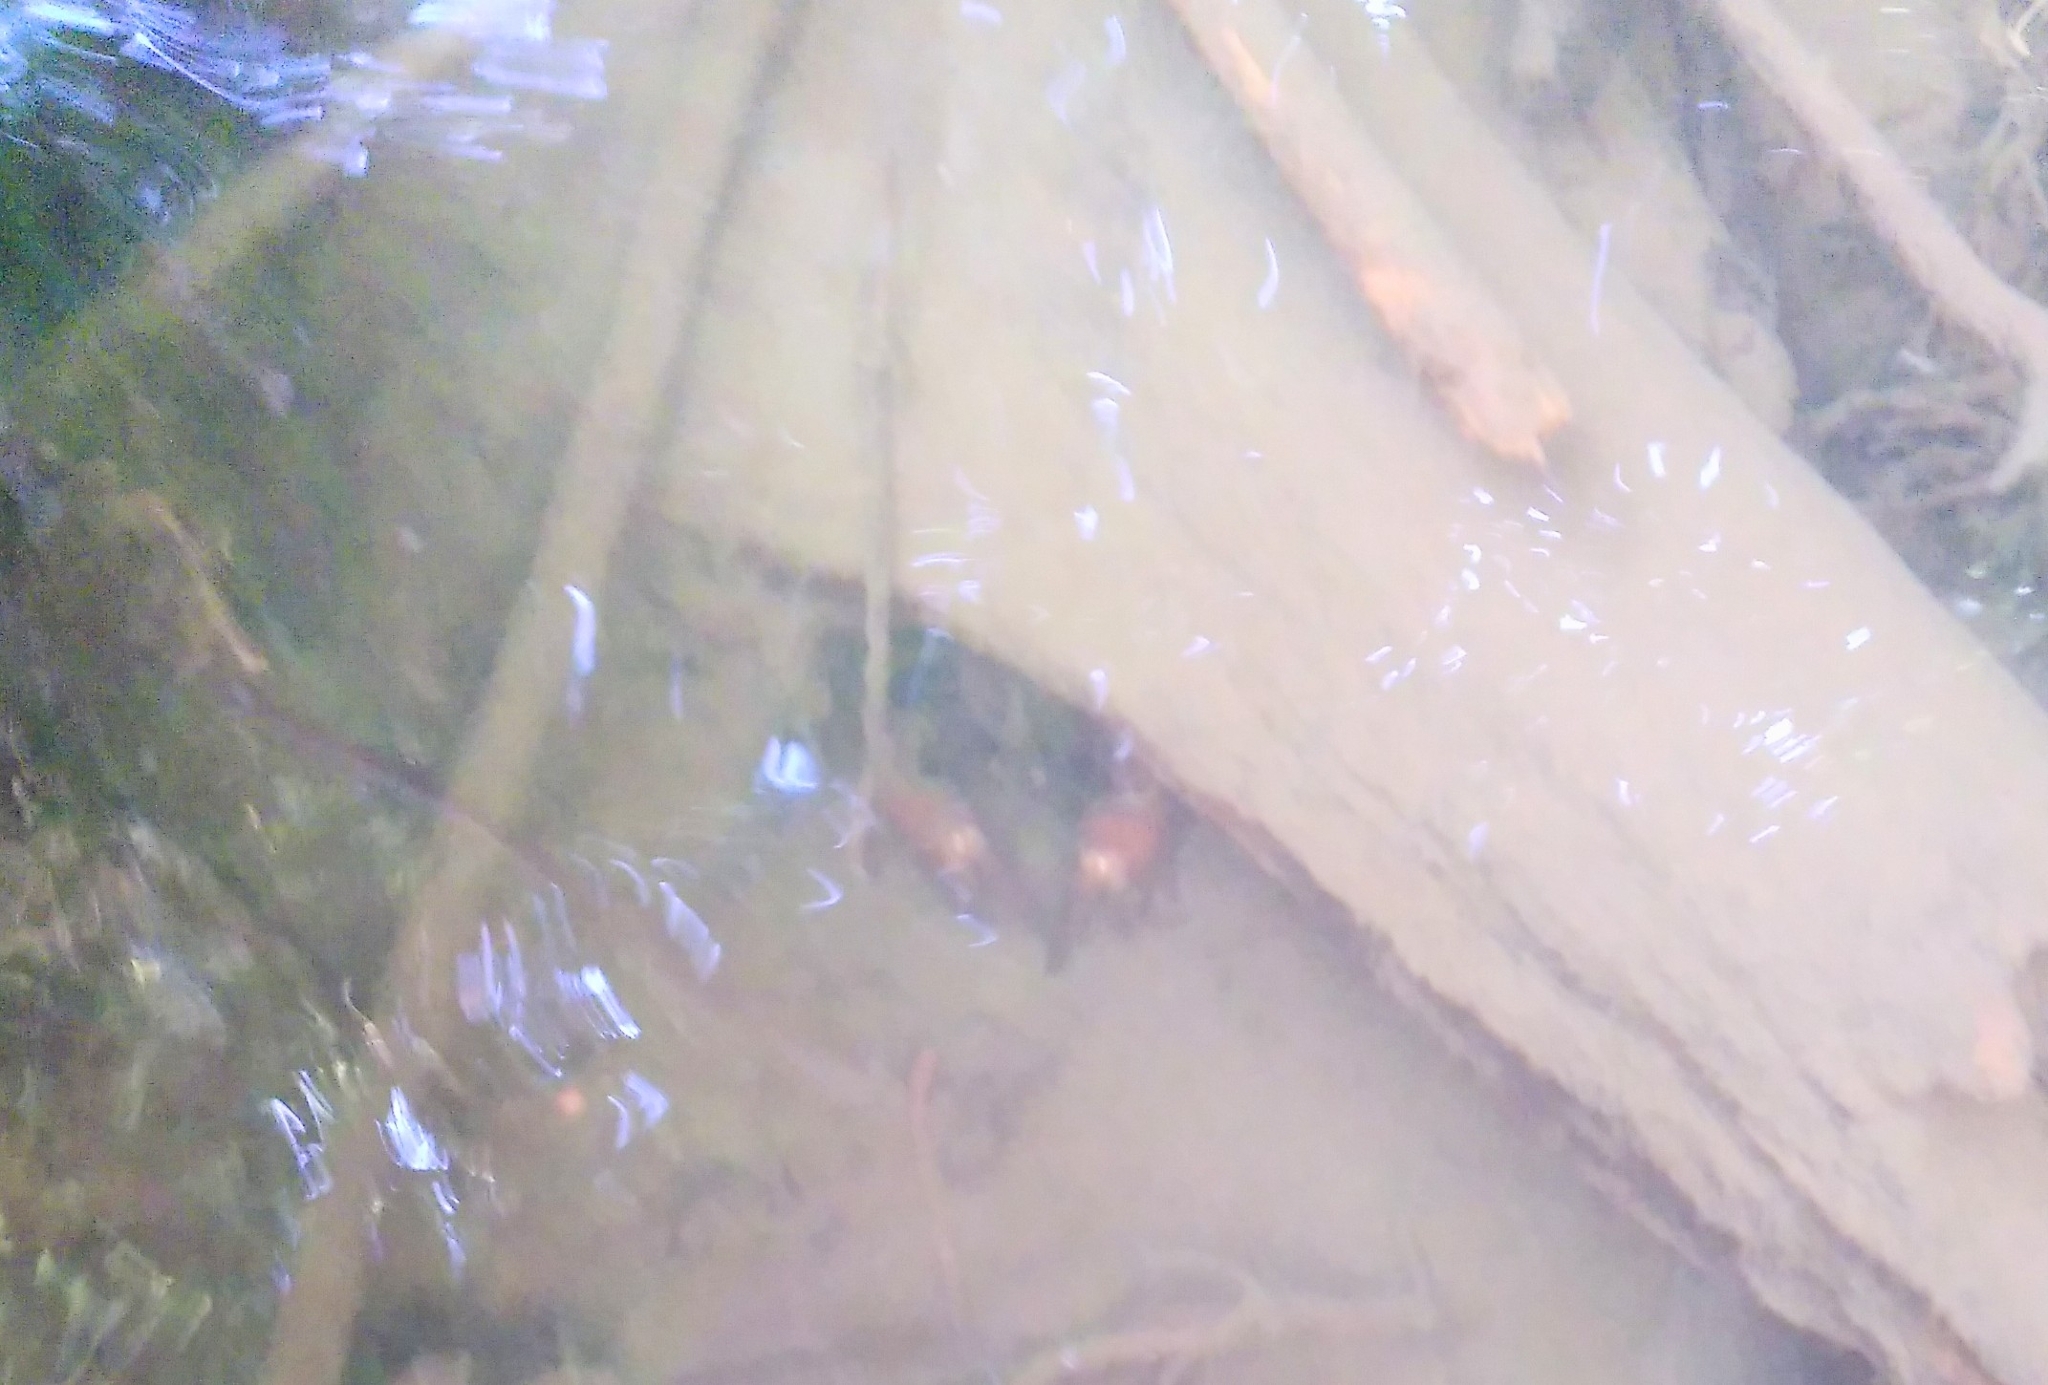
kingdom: Animalia
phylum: Arthropoda
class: Malacostraca
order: Decapoda
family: Astacidae
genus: Pacifastacus
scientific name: Pacifastacus leniusculus
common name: Signal crayfish
